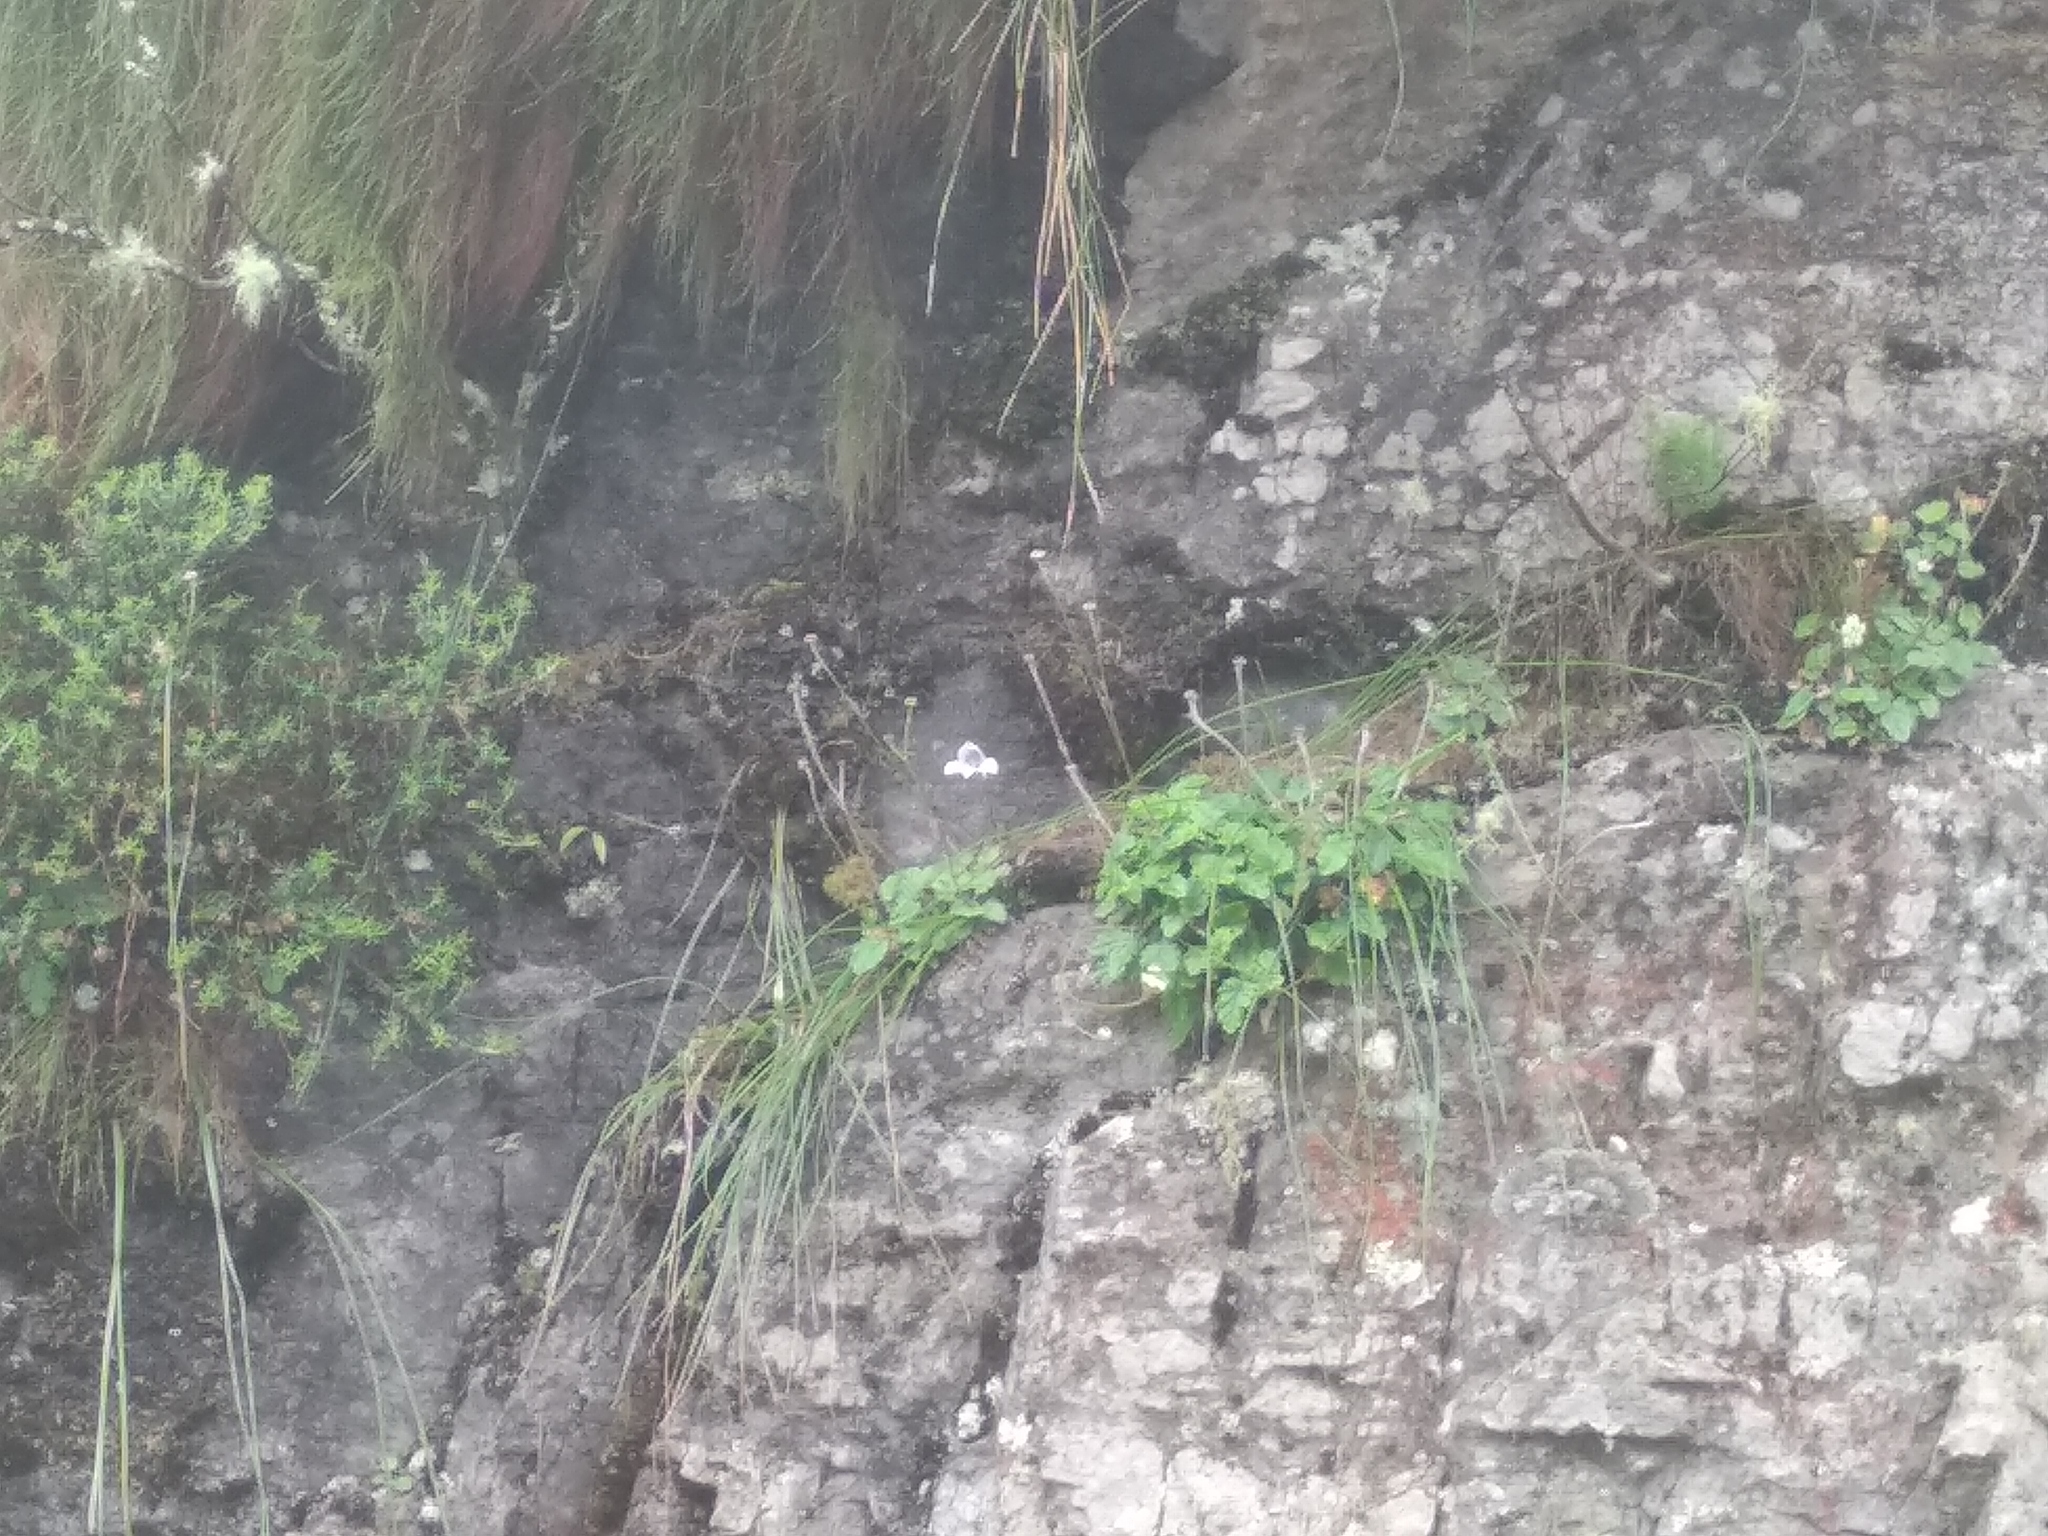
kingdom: Plantae
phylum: Tracheophyta
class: Liliopsida
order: Asparagales
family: Orchidaceae
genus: Disa
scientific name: Disa longicornu
